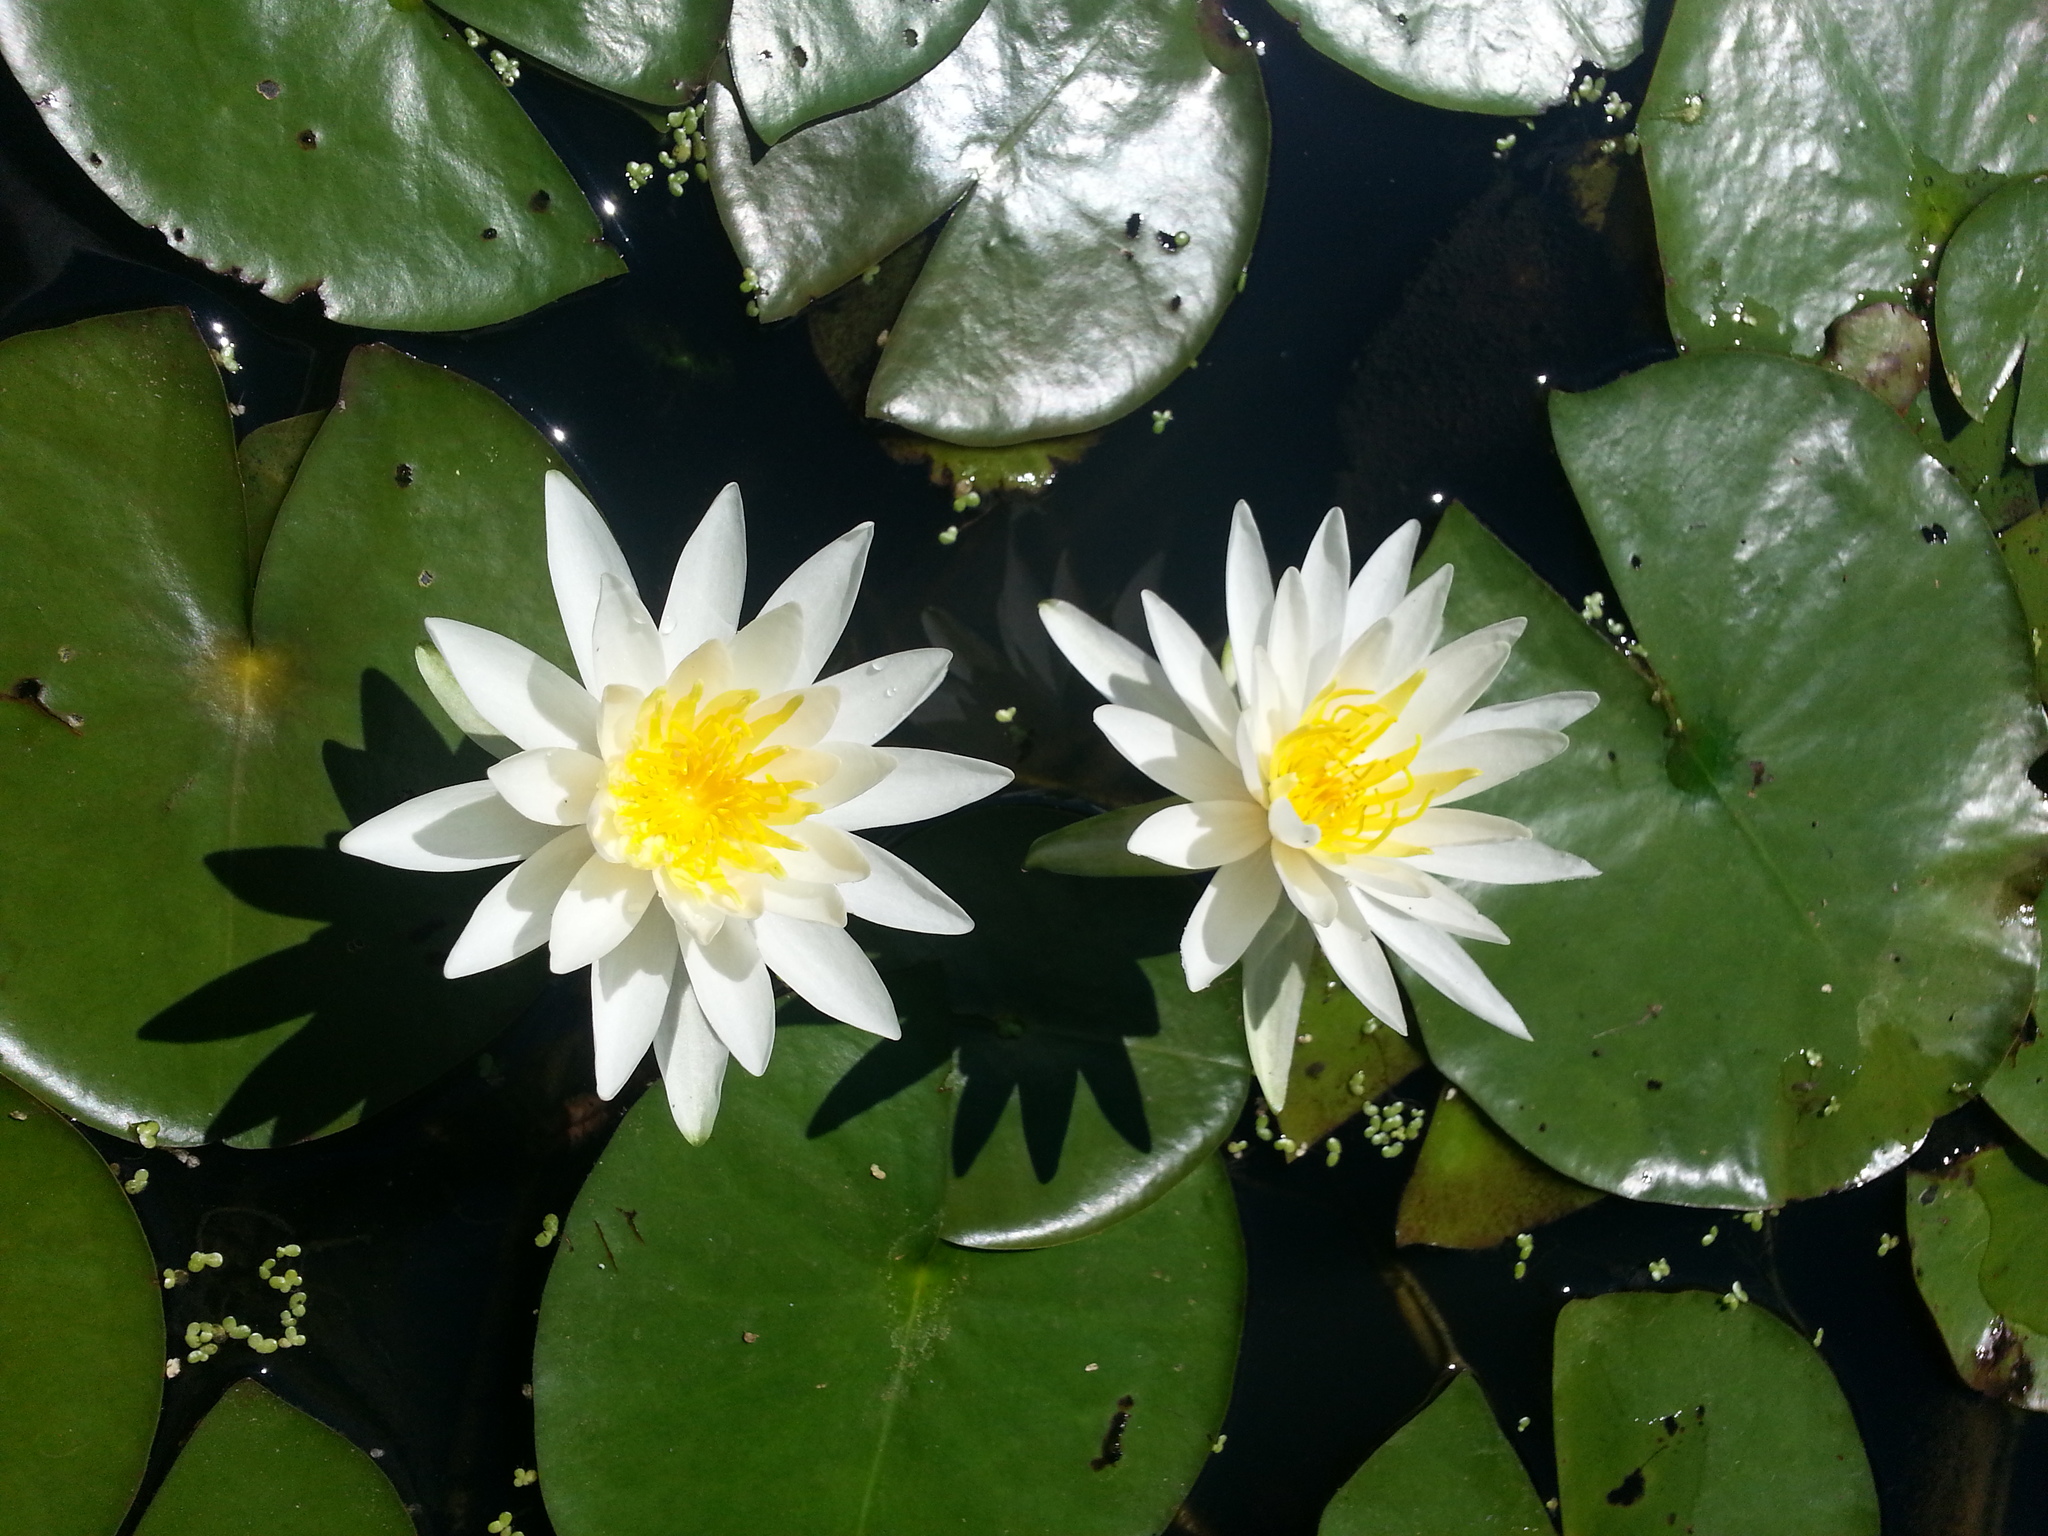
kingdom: Plantae
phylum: Tracheophyta
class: Magnoliopsida
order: Nymphaeales
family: Nymphaeaceae
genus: Nymphaea
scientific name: Nymphaea odorata
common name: Fragrant water-lily
